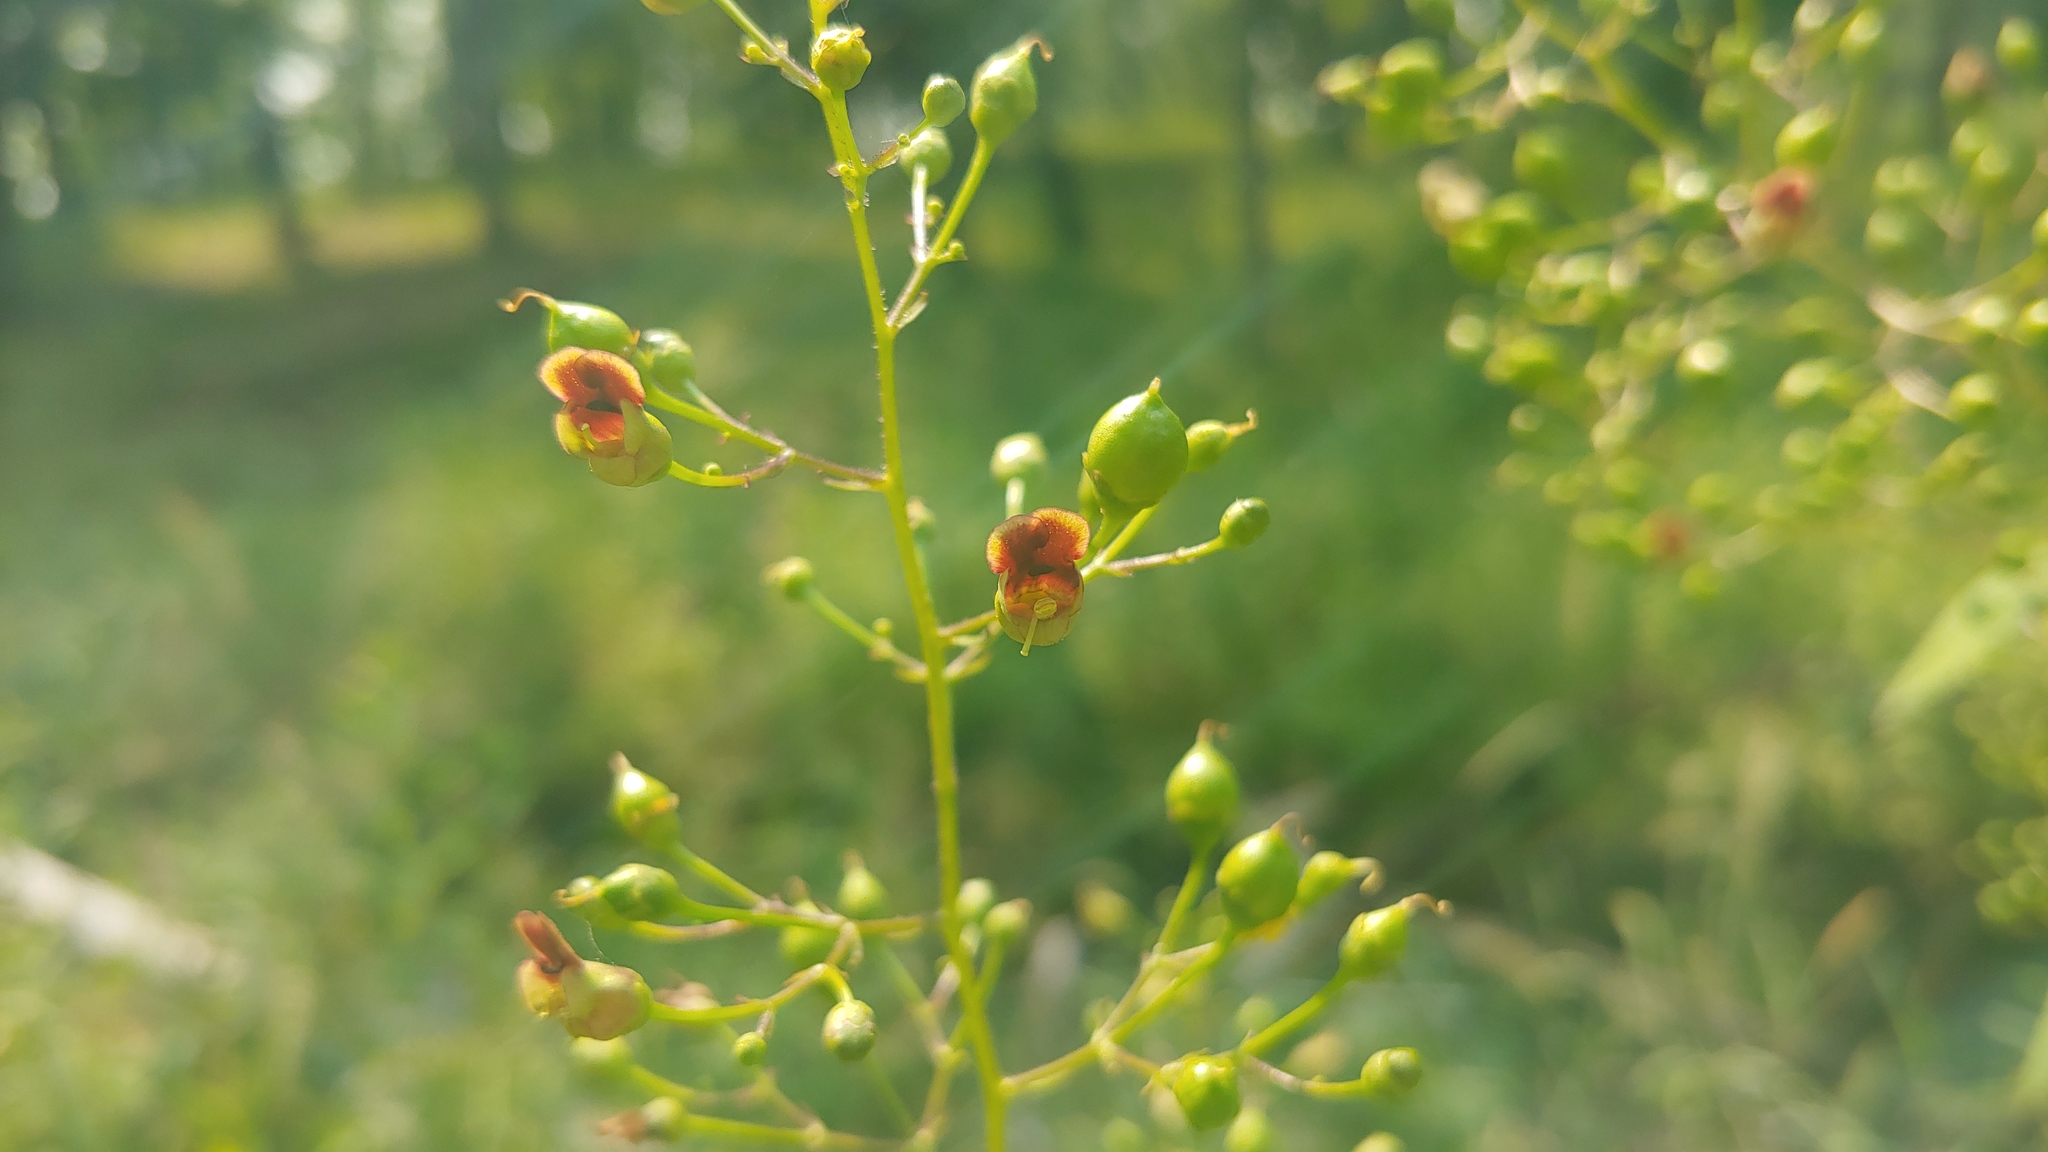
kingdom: Plantae
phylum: Tracheophyta
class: Magnoliopsida
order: Lamiales
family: Scrophulariaceae
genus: Scrophularia
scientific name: Scrophularia marilandica
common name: Eastern figwort
